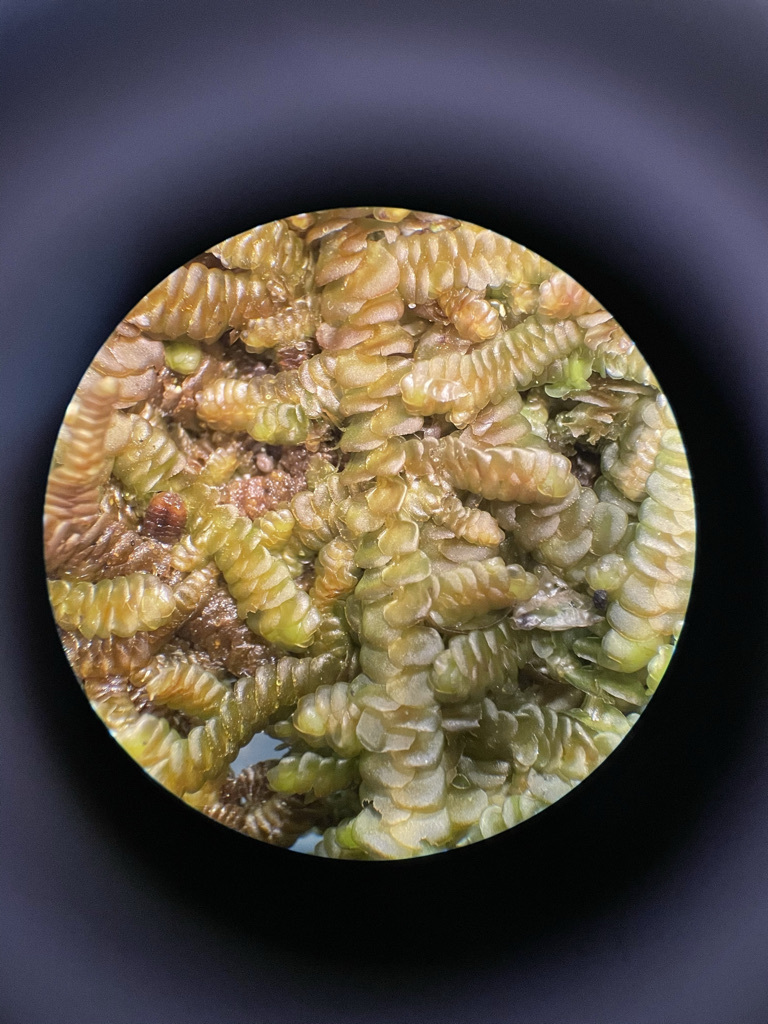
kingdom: Plantae
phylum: Marchantiophyta
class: Jungermanniopsida
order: Porellales
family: Porellaceae
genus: Porella
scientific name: Porella navicularis
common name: Tree ruffle liverwort
